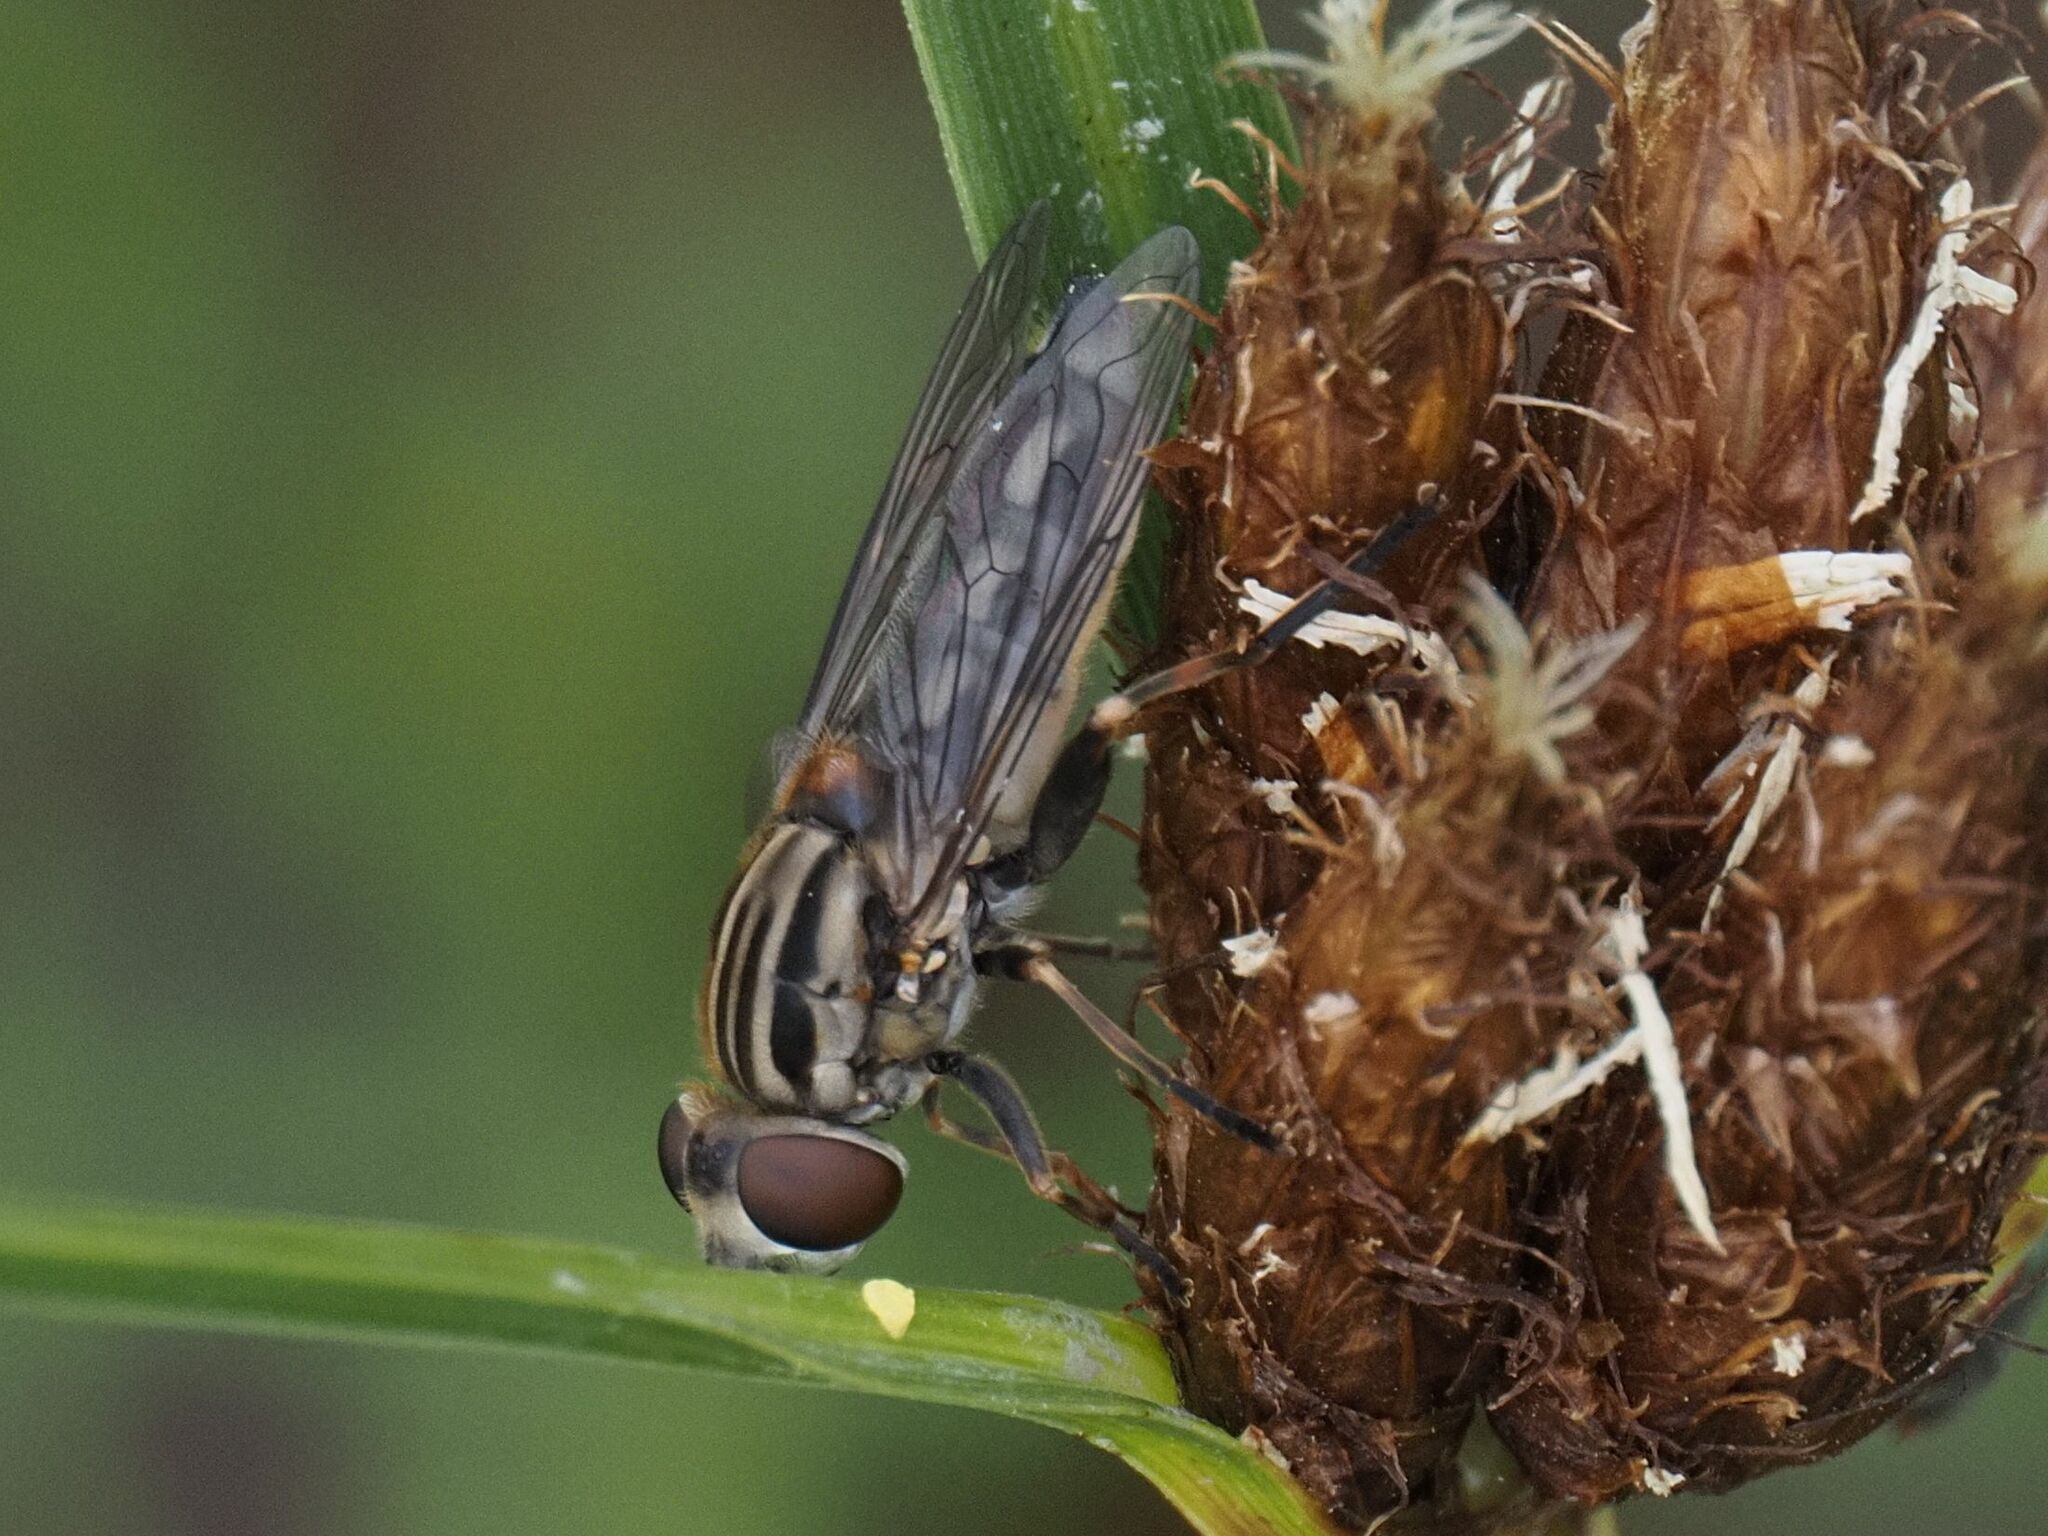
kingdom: Animalia
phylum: Arthropoda
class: Insecta
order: Diptera
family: Syrphidae
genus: Lejops
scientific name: Lejops vittatus
